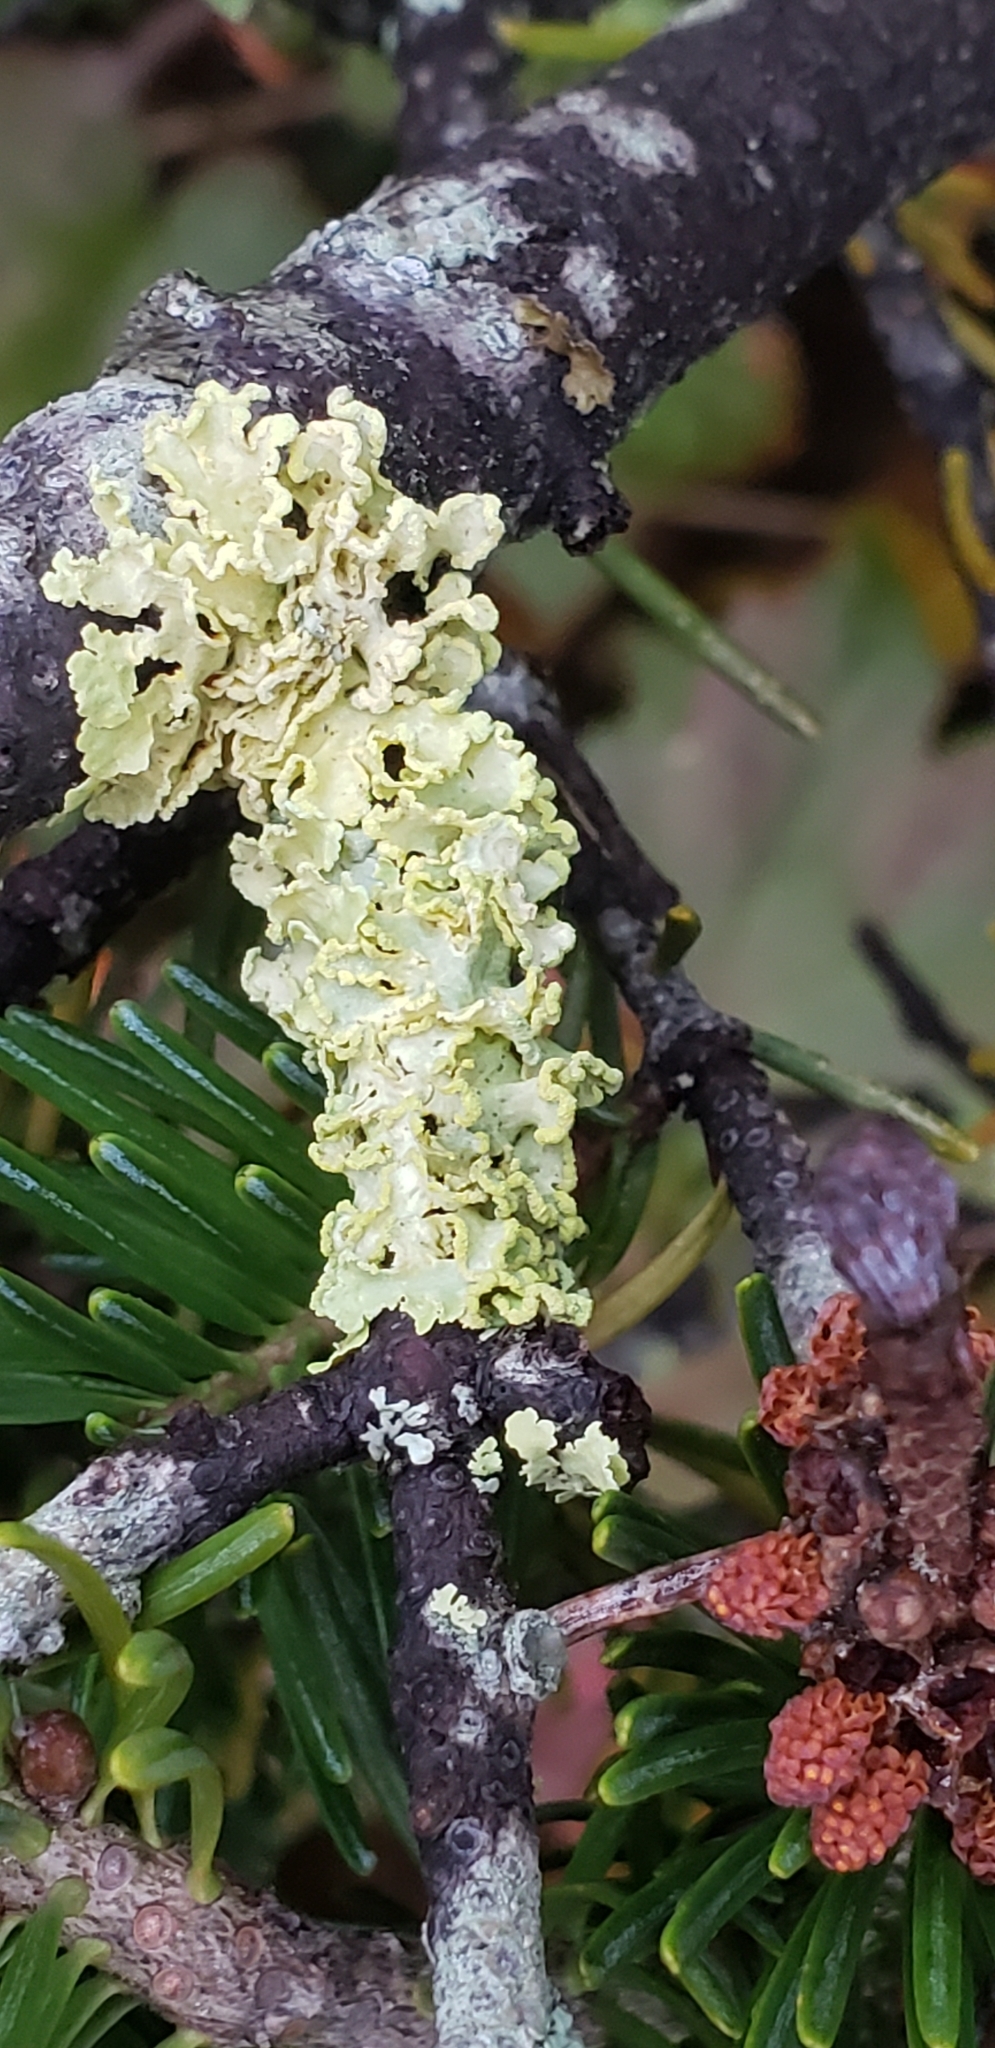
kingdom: Fungi
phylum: Ascomycota
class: Lecanoromycetes
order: Lecanorales
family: Parmeliaceae
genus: Vulpicida
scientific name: Vulpicida pinastri
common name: Powdered sunshine lichen
